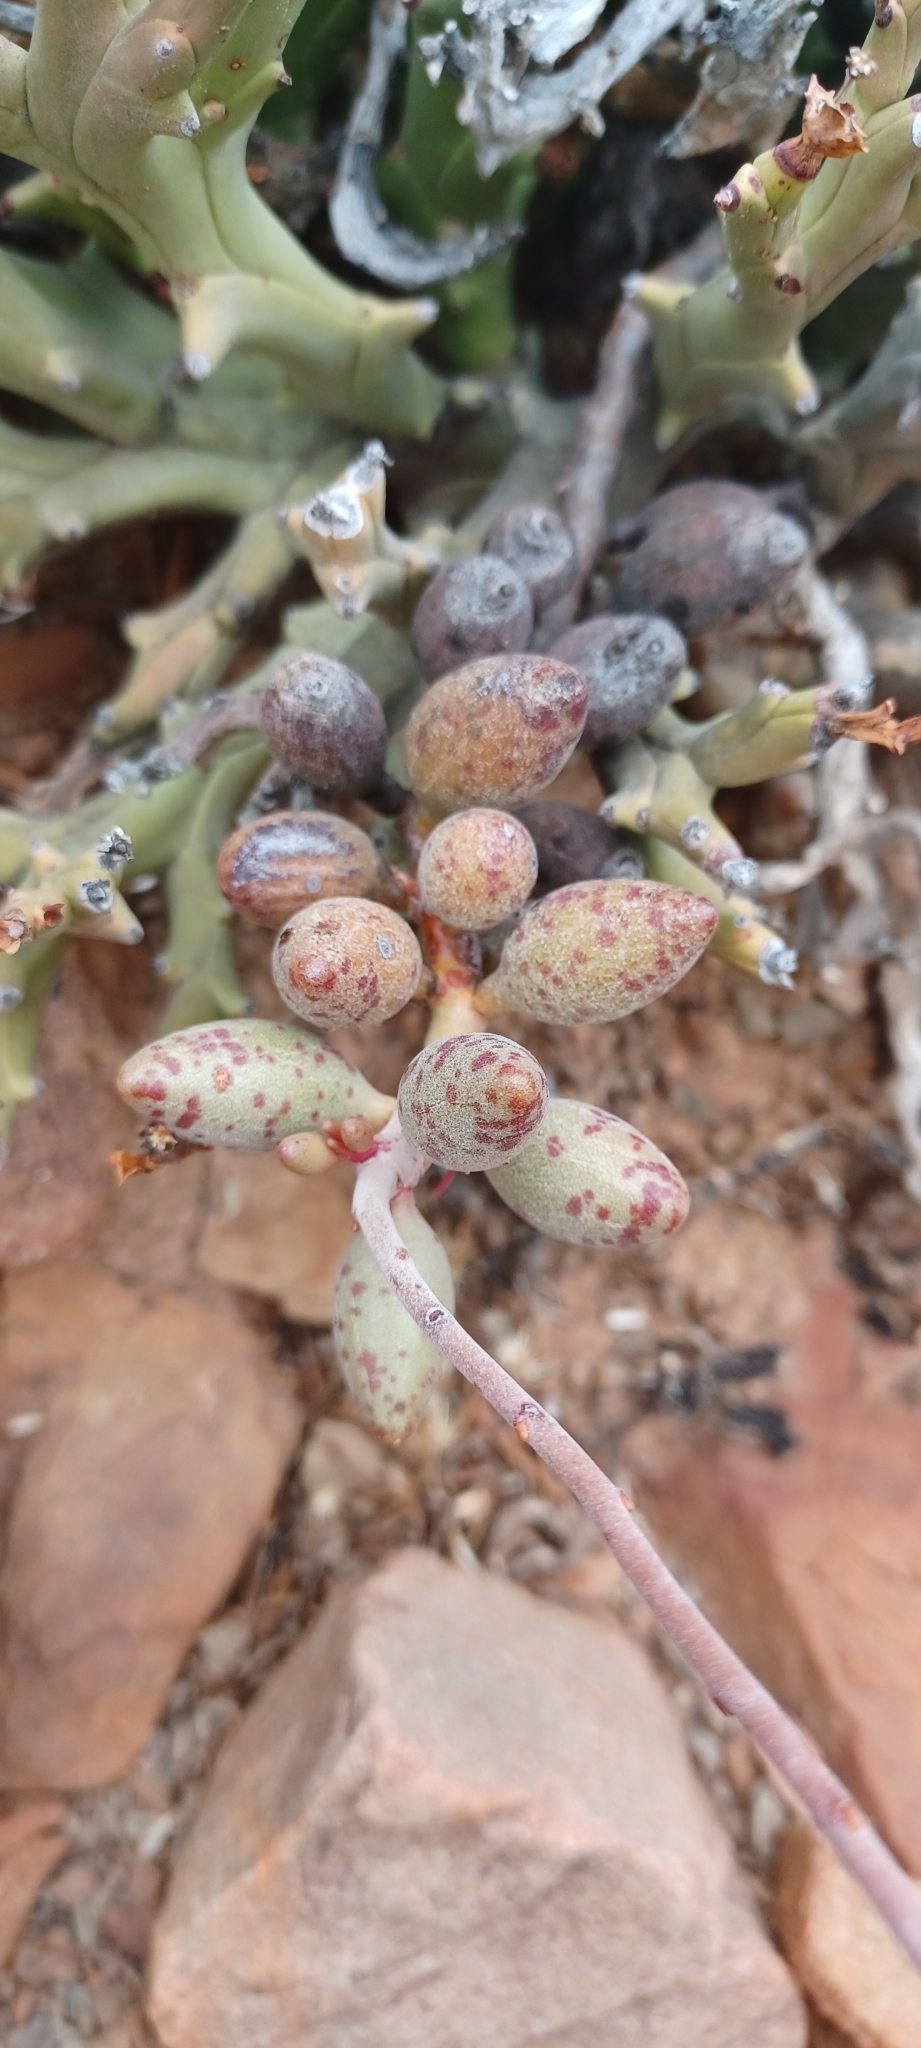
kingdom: Plantae
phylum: Tracheophyta
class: Magnoliopsida
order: Saxifragales
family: Crassulaceae
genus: Adromischus
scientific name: Adromischus filicaulis
